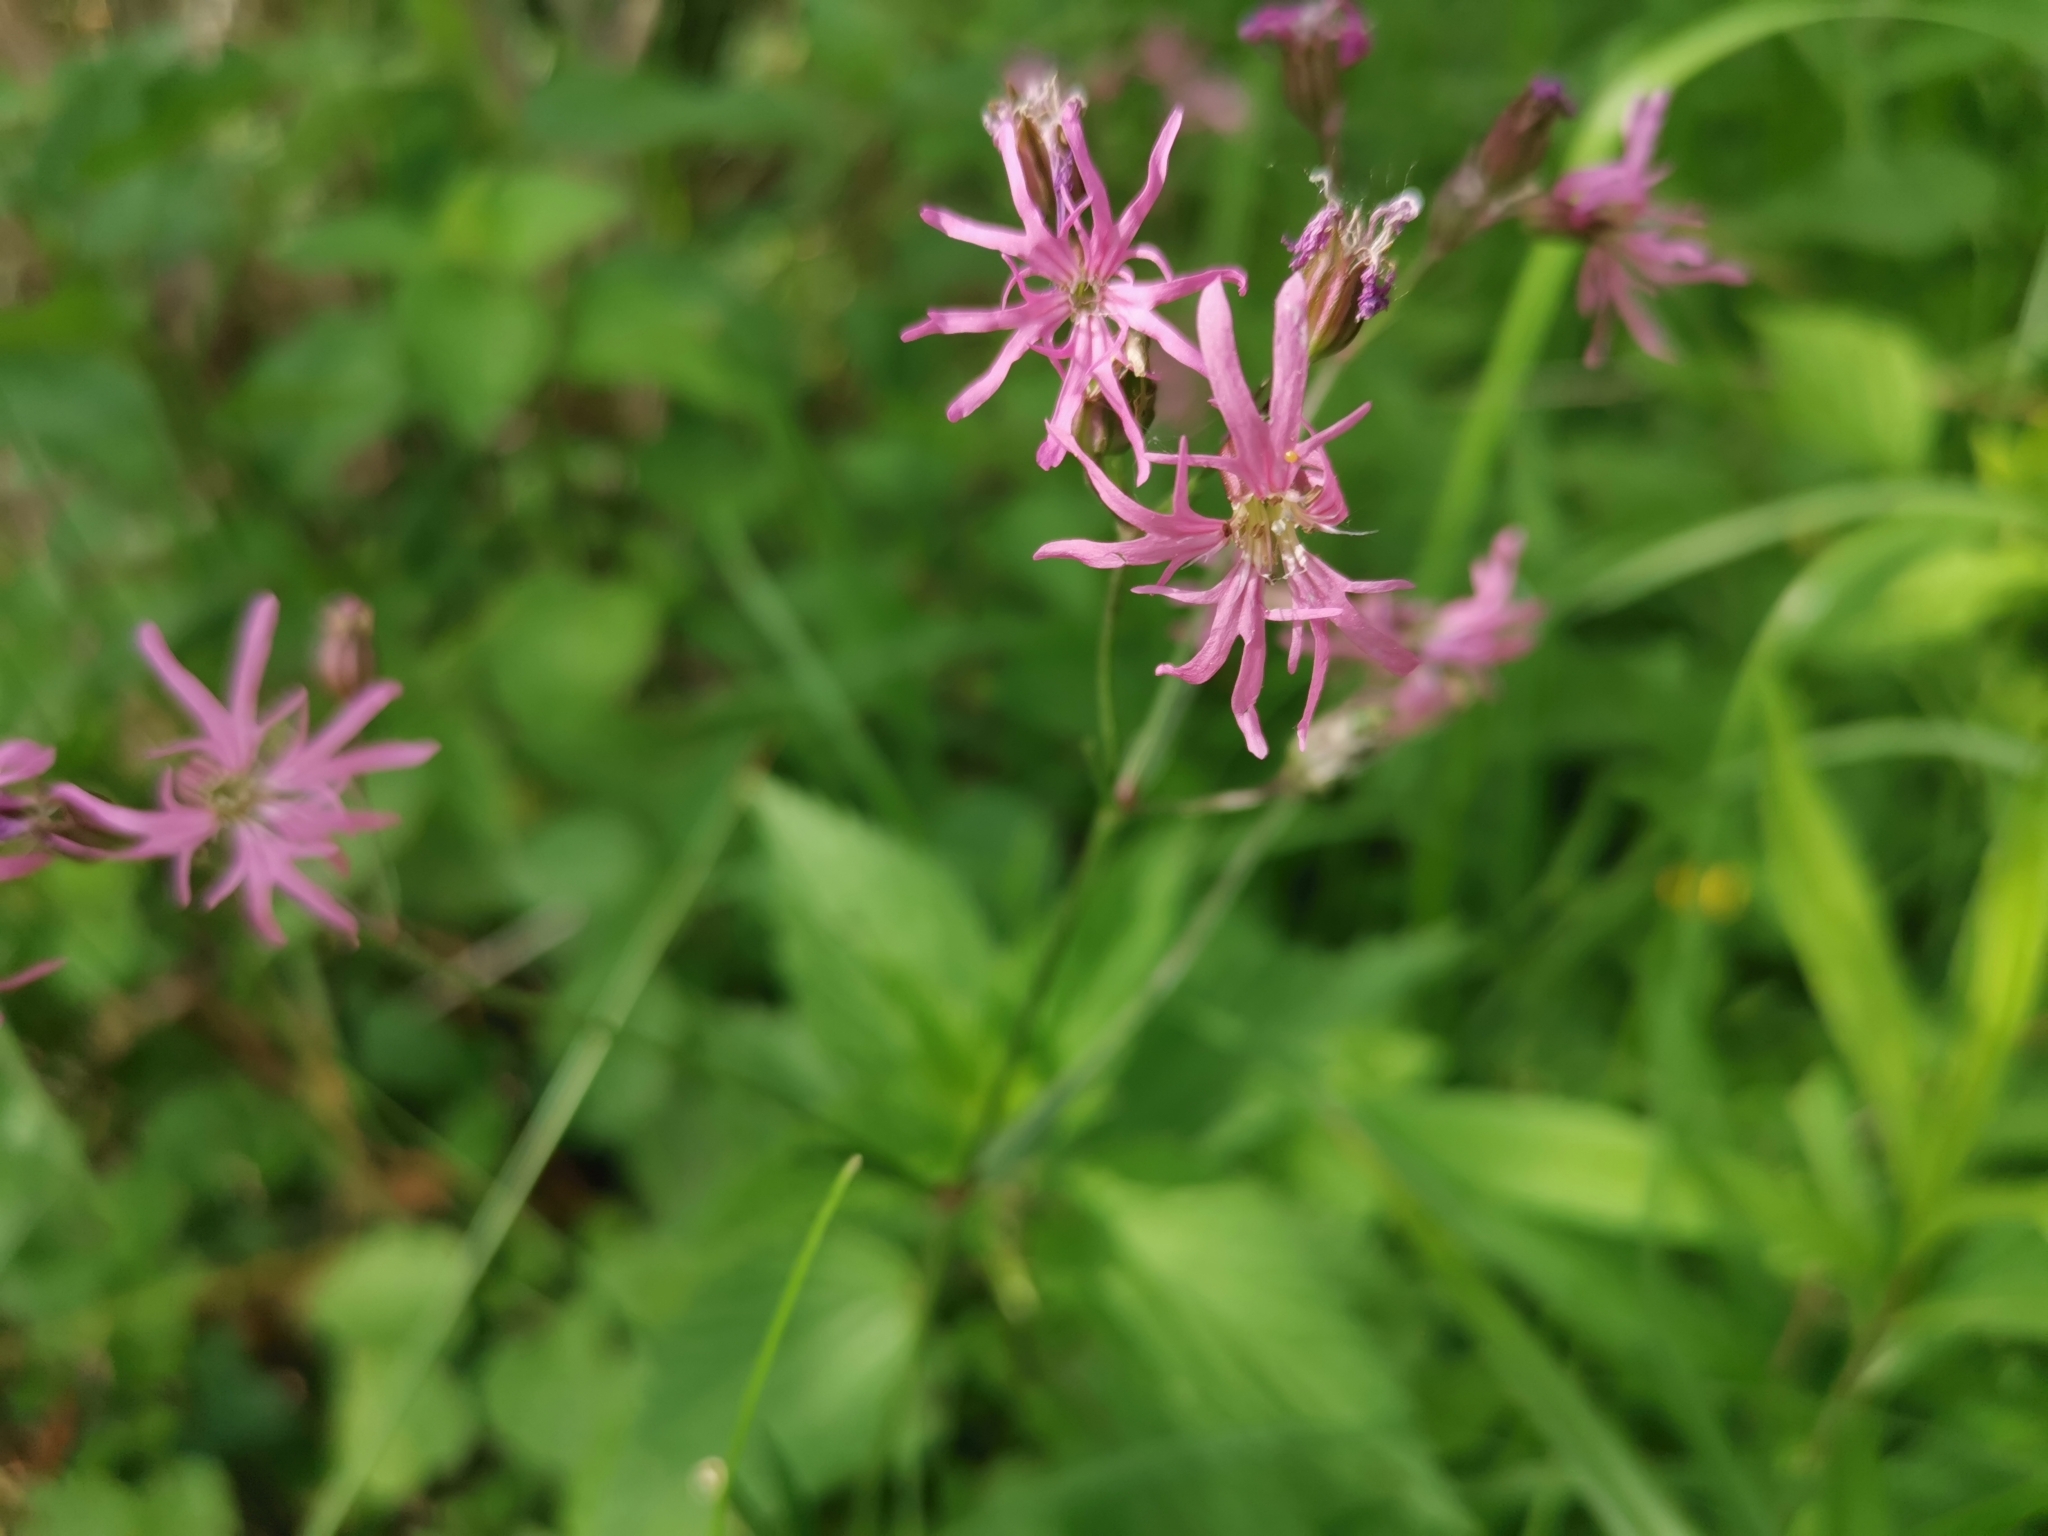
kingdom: Plantae
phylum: Tracheophyta
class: Magnoliopsida
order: Caryophyllales
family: Caryophyllaceae
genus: Silene
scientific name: Silene flos-cuculi
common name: Ragged-robin
